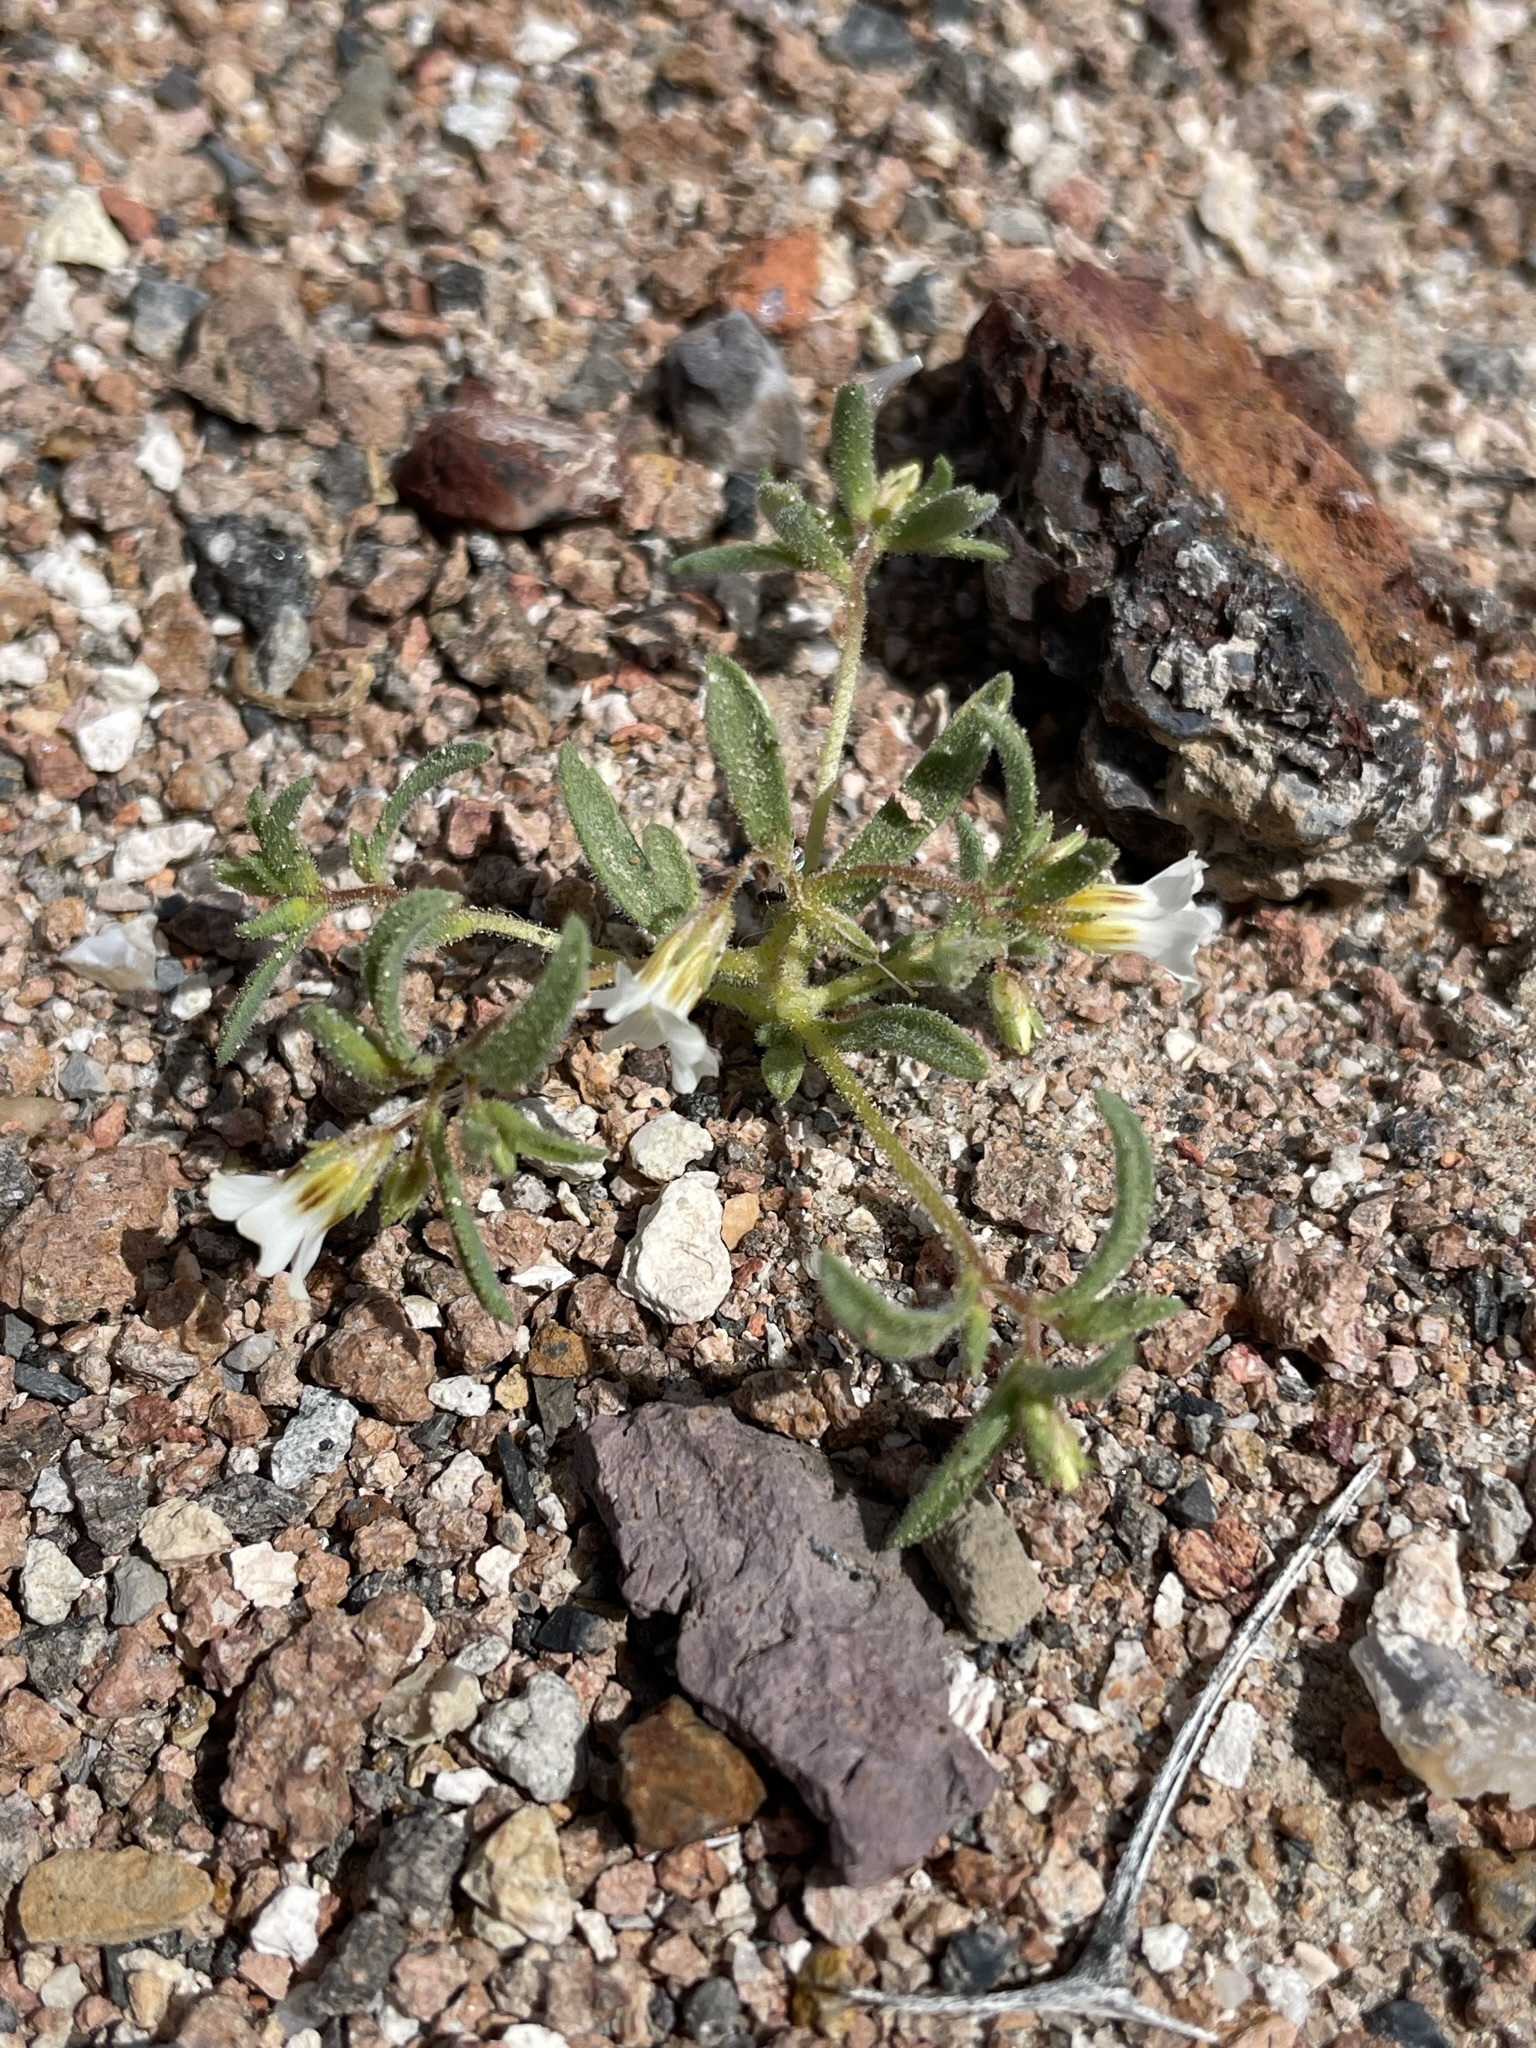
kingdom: Plantae
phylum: Tracheophyta
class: Magnoliopsida
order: Ericales
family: Polemoniaceae
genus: Linanthus
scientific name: Linanthus campanulatus
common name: Bellshape gilia
